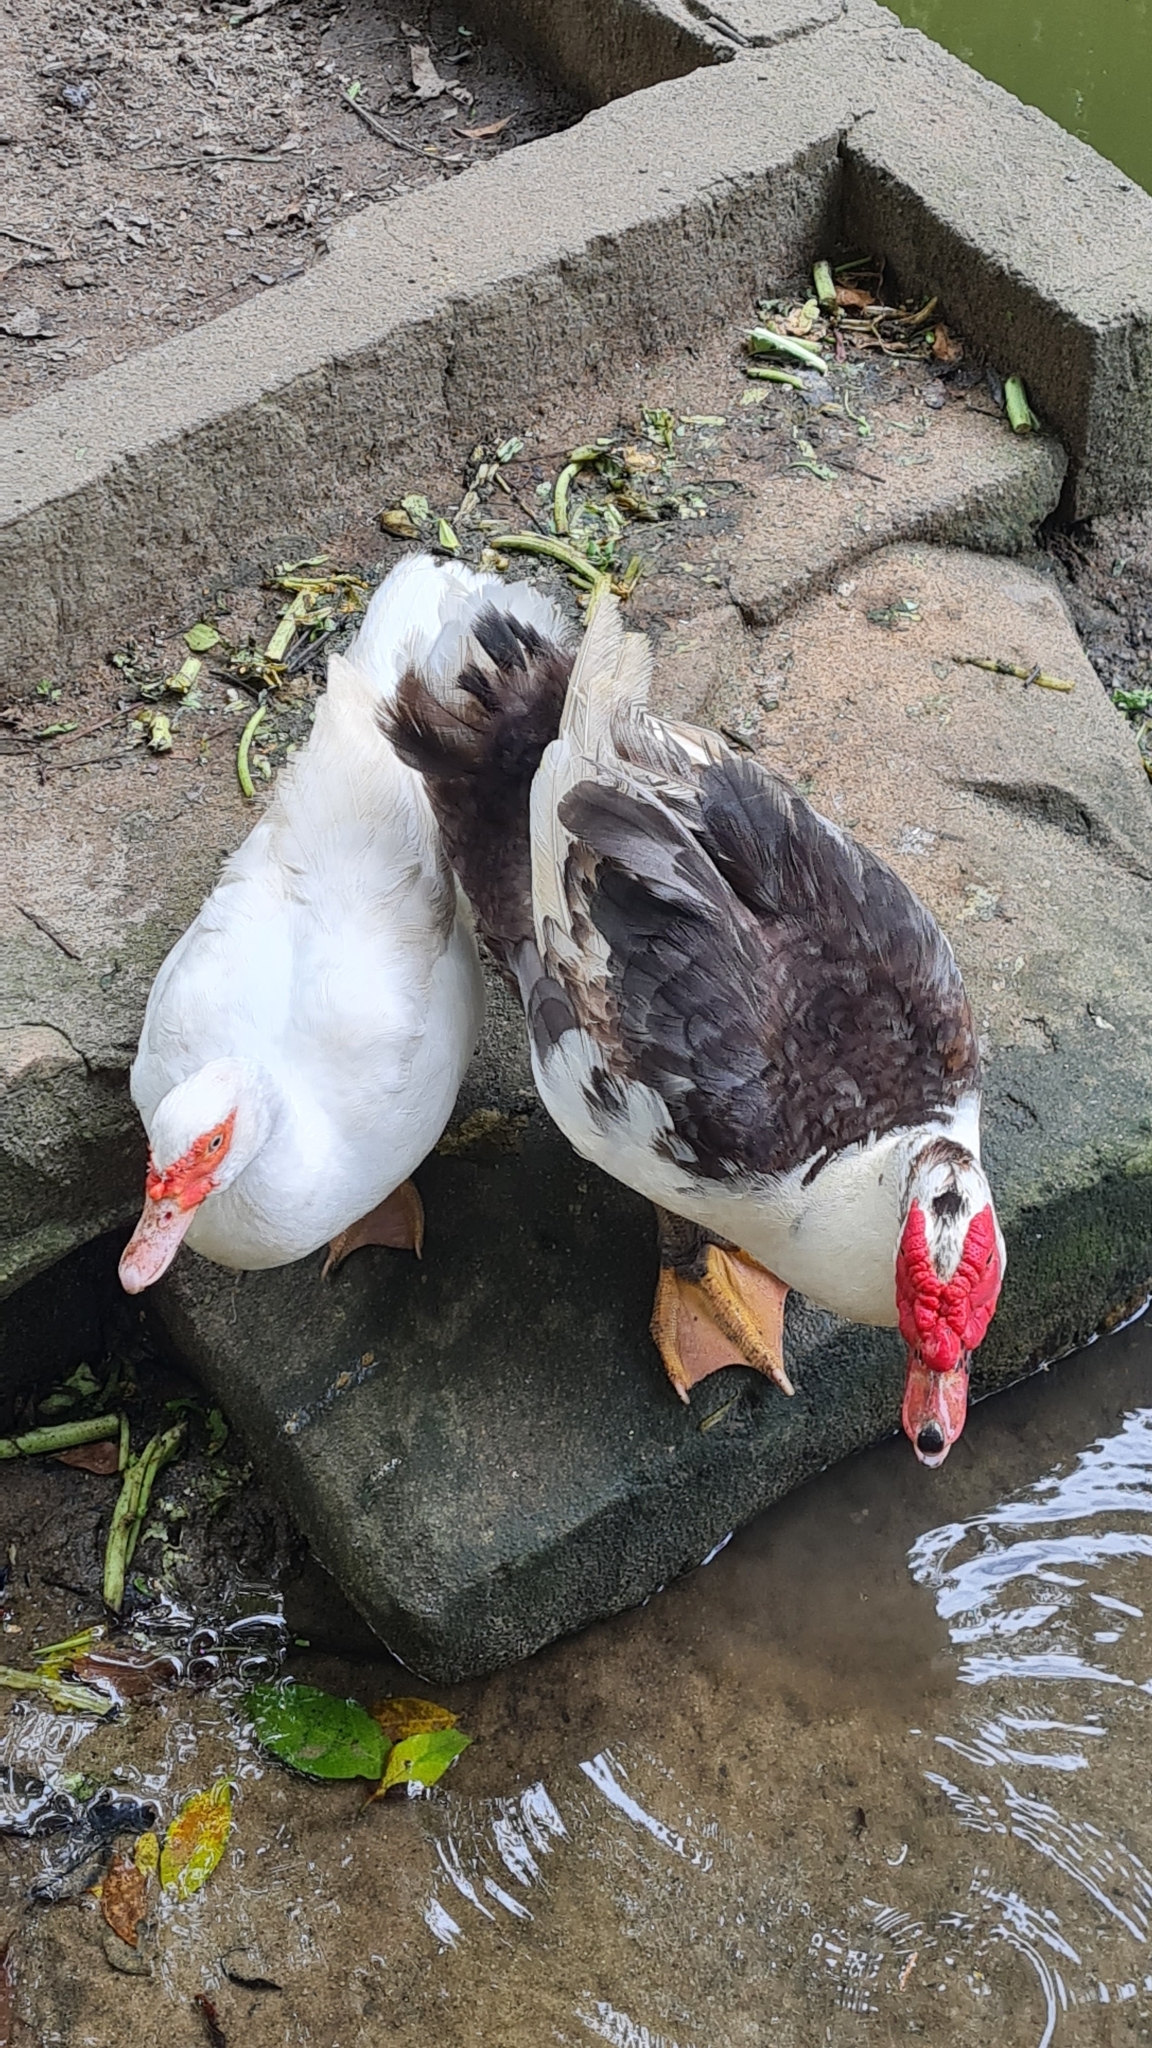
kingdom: Animalia
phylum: Chordata
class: Aves
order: Anseriformes
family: Anatidae
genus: Cairina
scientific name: Cairina moschata
